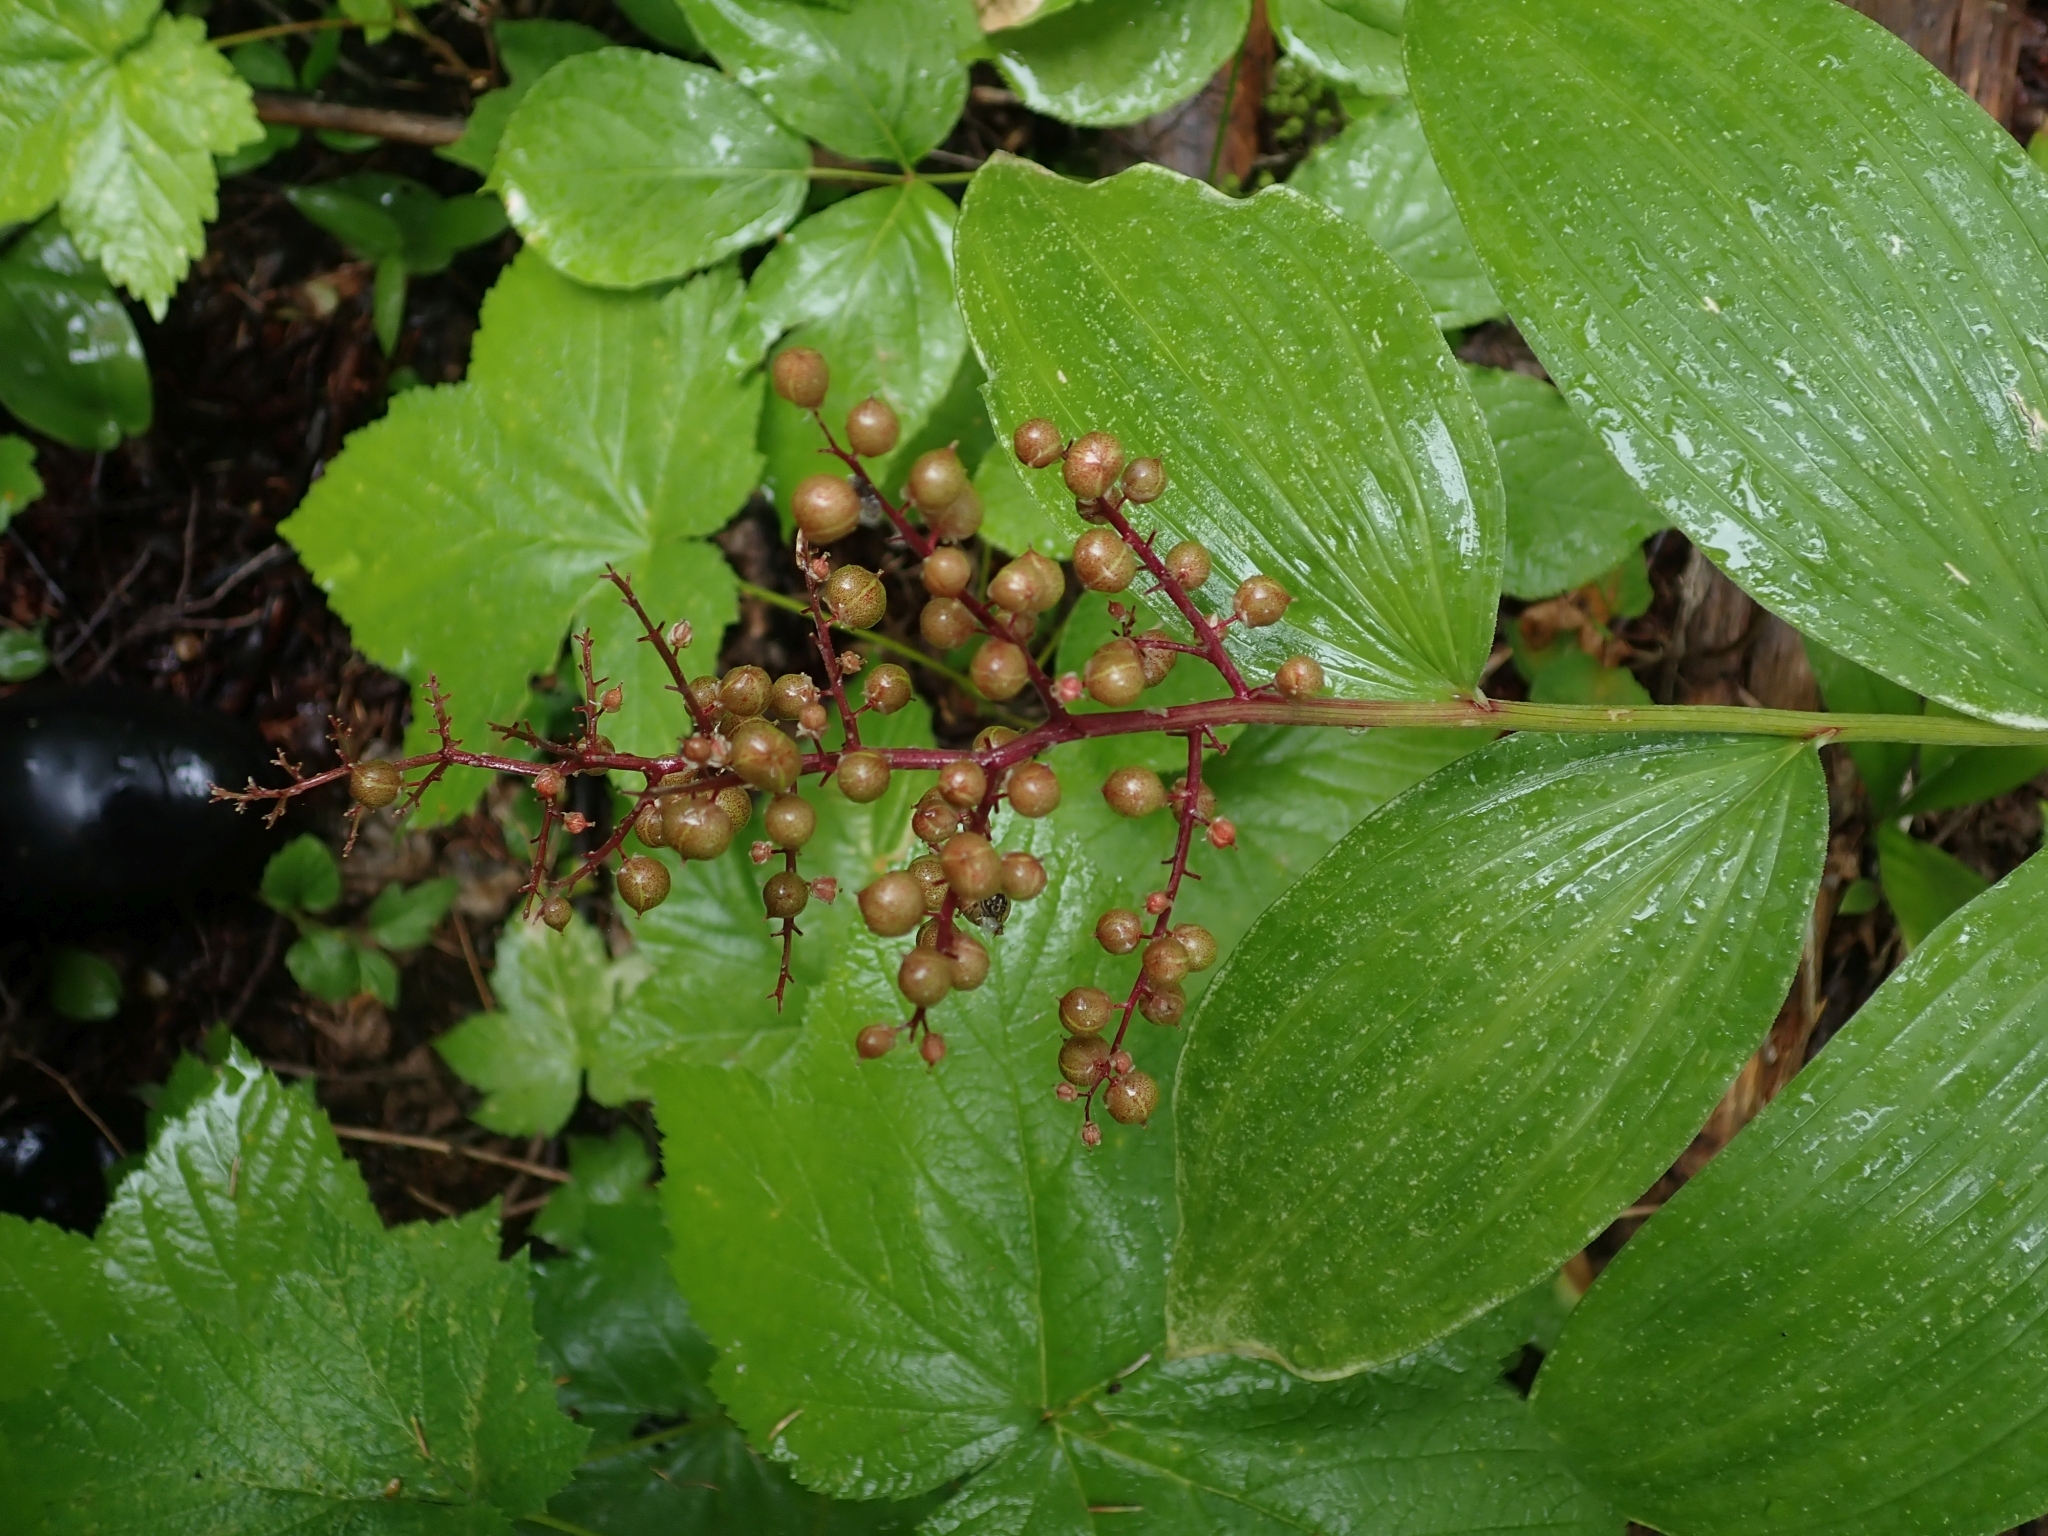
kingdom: Plantae
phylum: Tracheophyta
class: Liliopsida
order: Asparagales
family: Asparagaceae
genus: Maianthemum
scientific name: Maianthemum racemosum
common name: False spikenard
